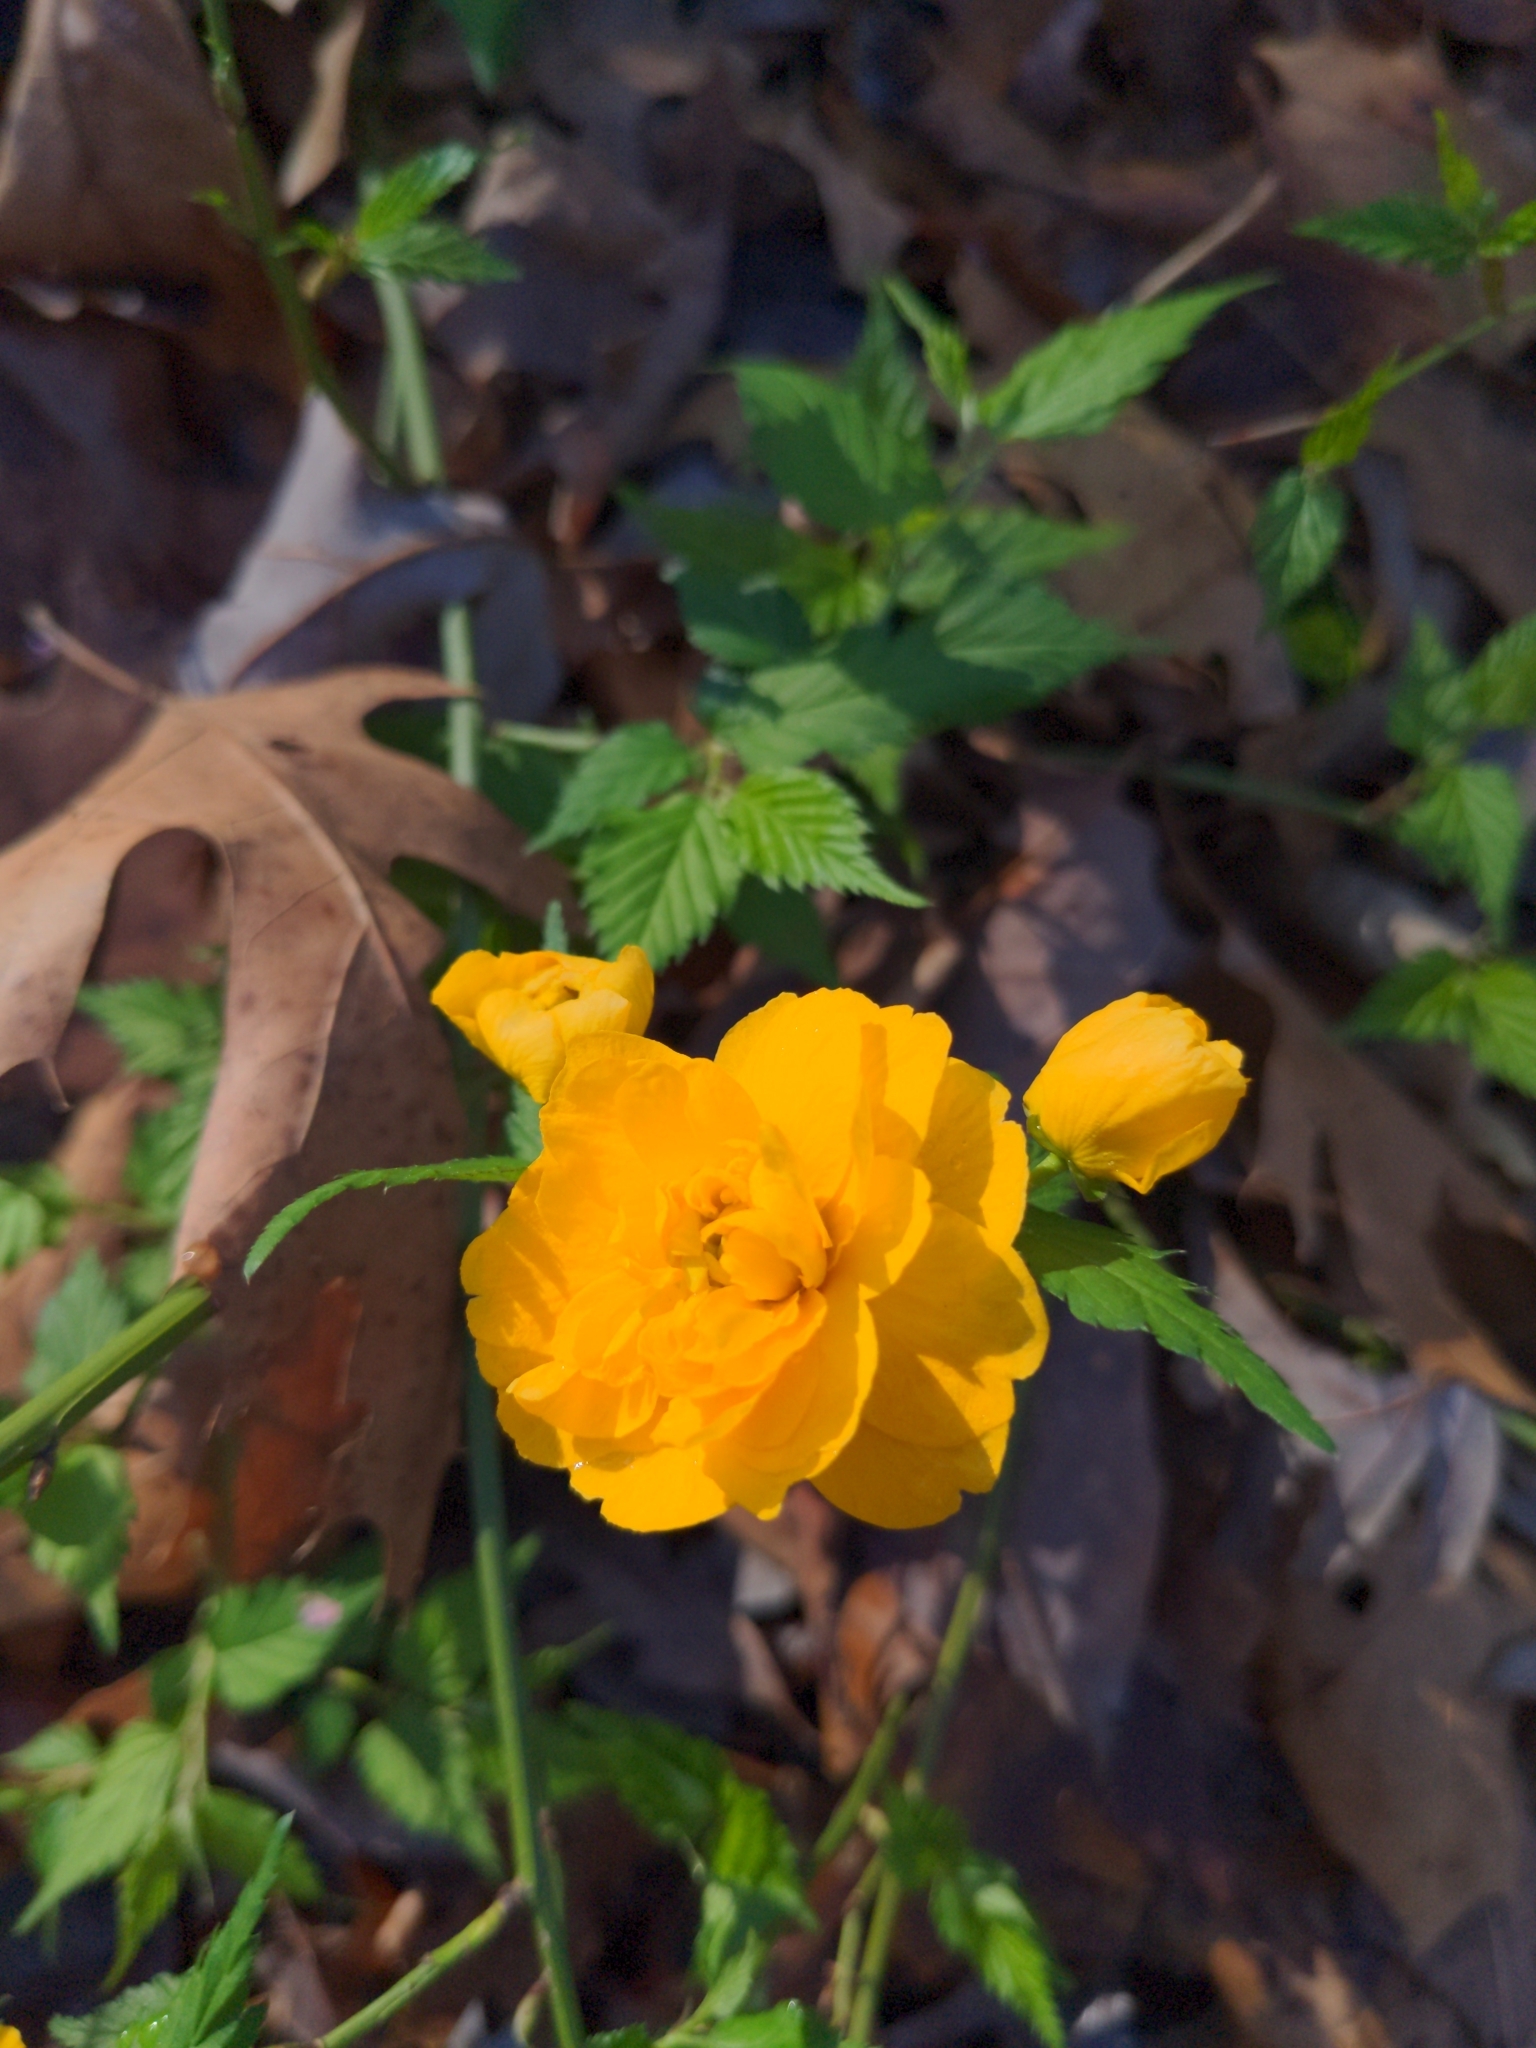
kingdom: Plantae
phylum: Tracheophyta
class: Magnoliopsida
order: Rosales
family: Rosaceae
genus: Kerria
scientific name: Kerria japonica
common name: Japanese kerria
